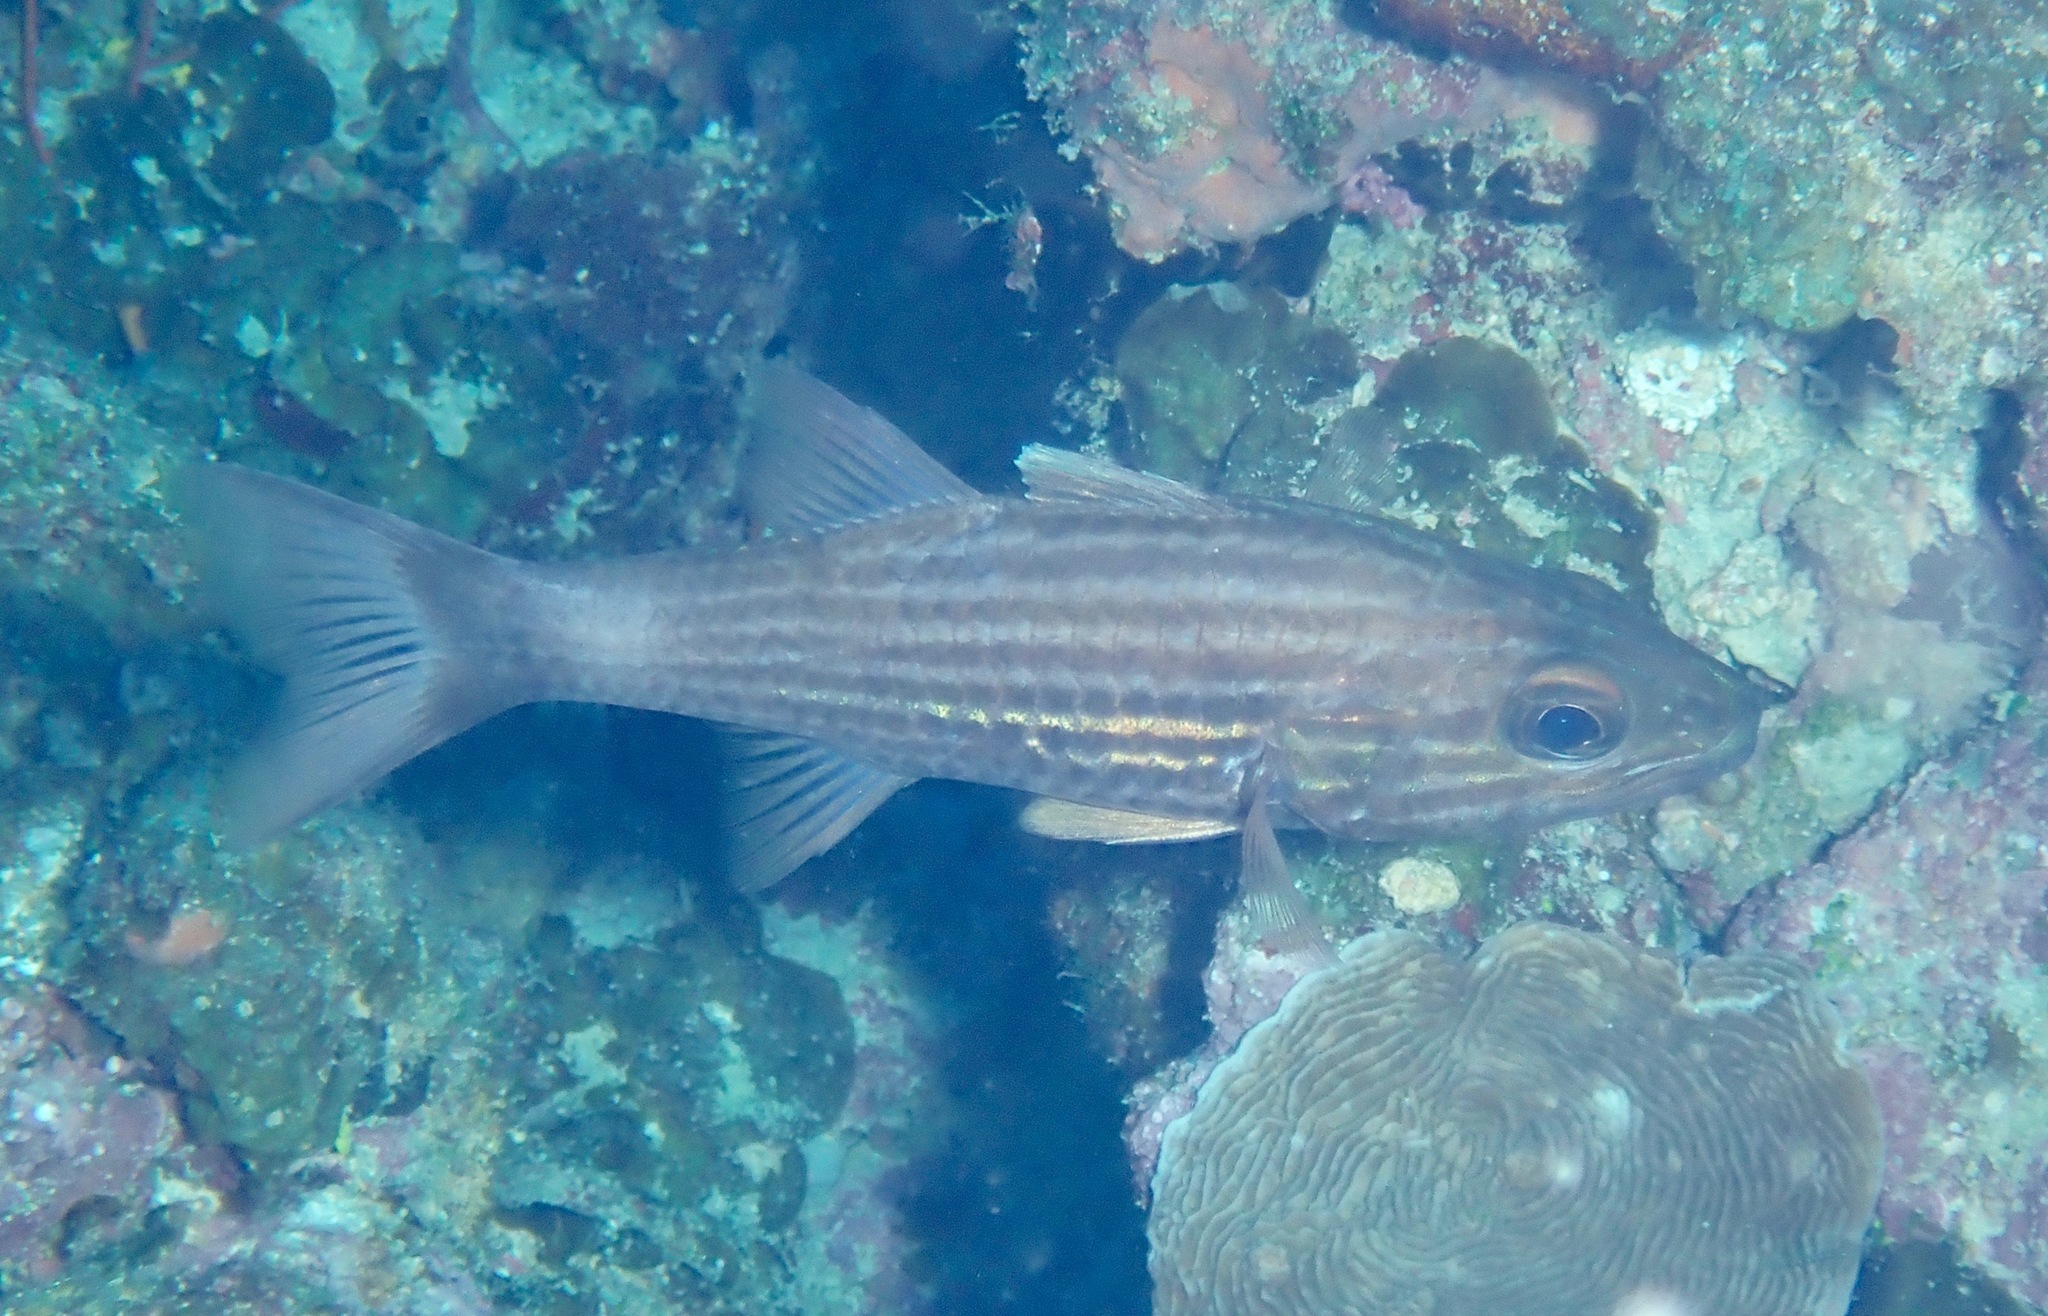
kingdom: Animalia
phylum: Chordata
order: Perciformes
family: Apogonidae
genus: Cheilodipterus
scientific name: Cheilodipterus macrodon
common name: Eight-lined cardinalfish
